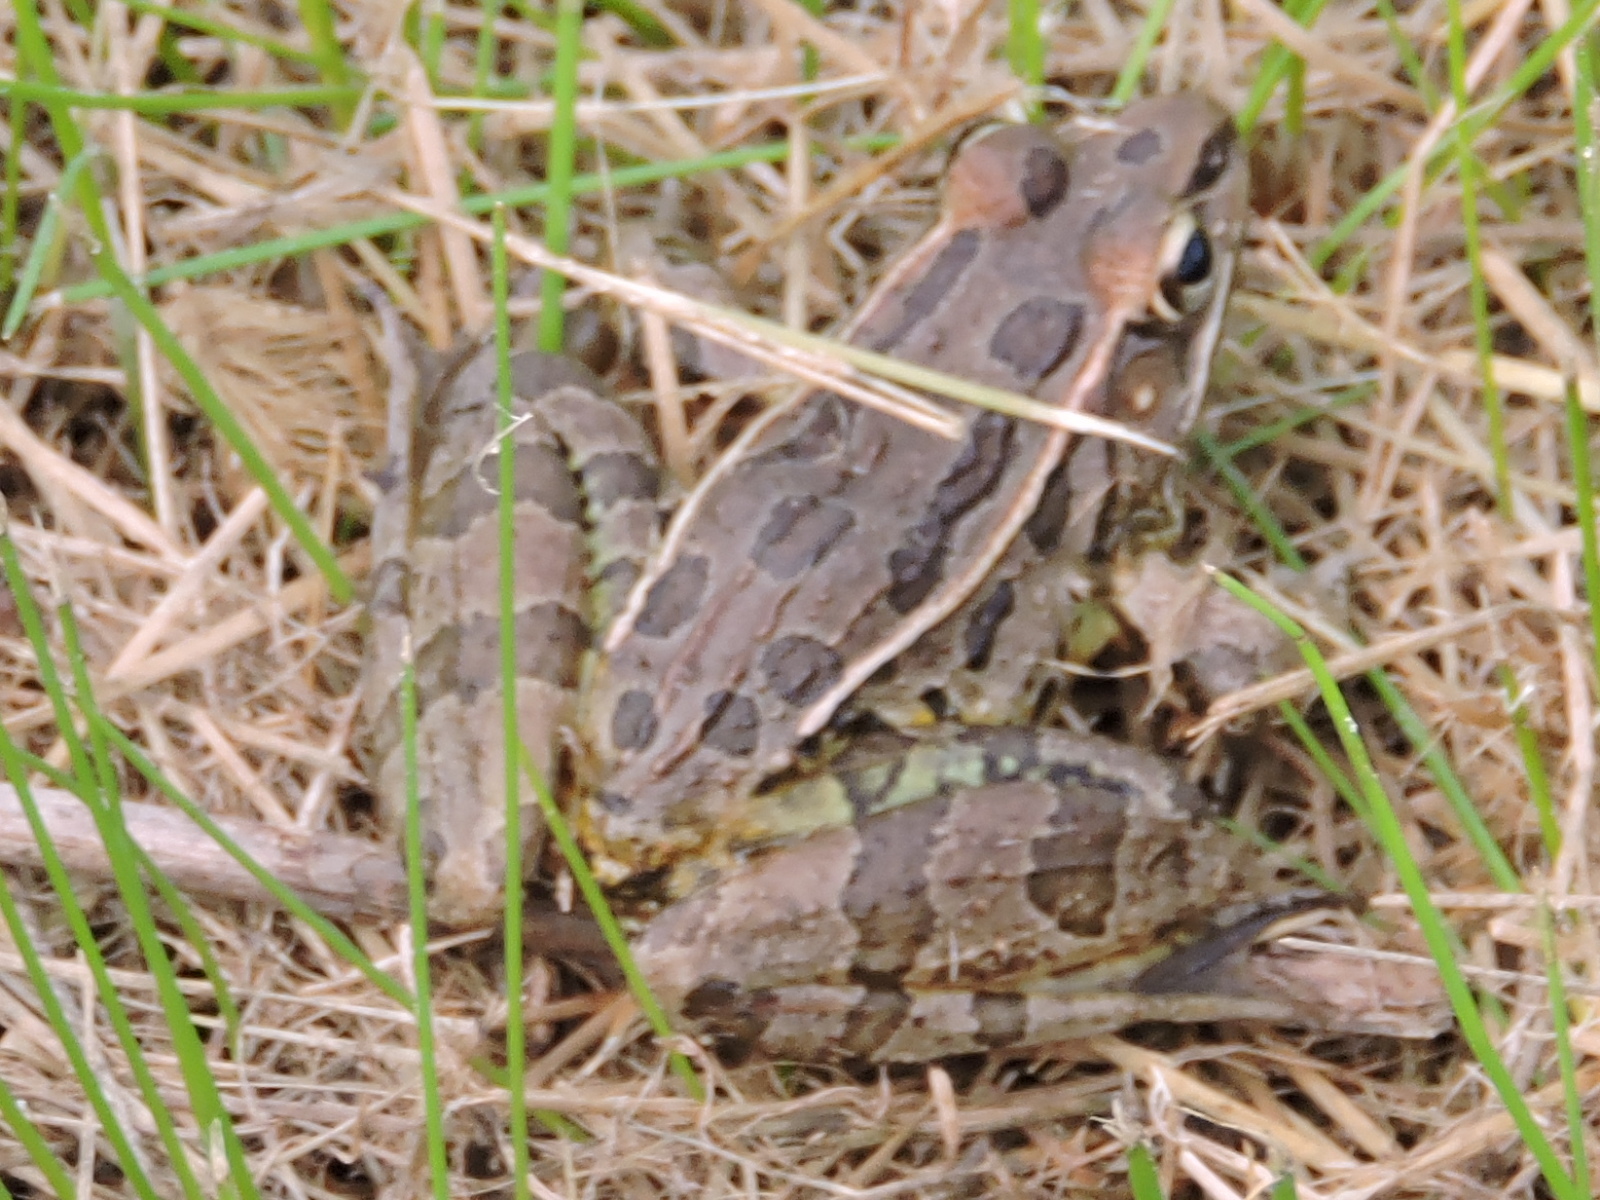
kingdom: Animalia
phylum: Chordata
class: Amphibia
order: Anura
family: Ranidae
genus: Lithobates
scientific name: Lithobates sphenocephalus
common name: Southern leopard frog
